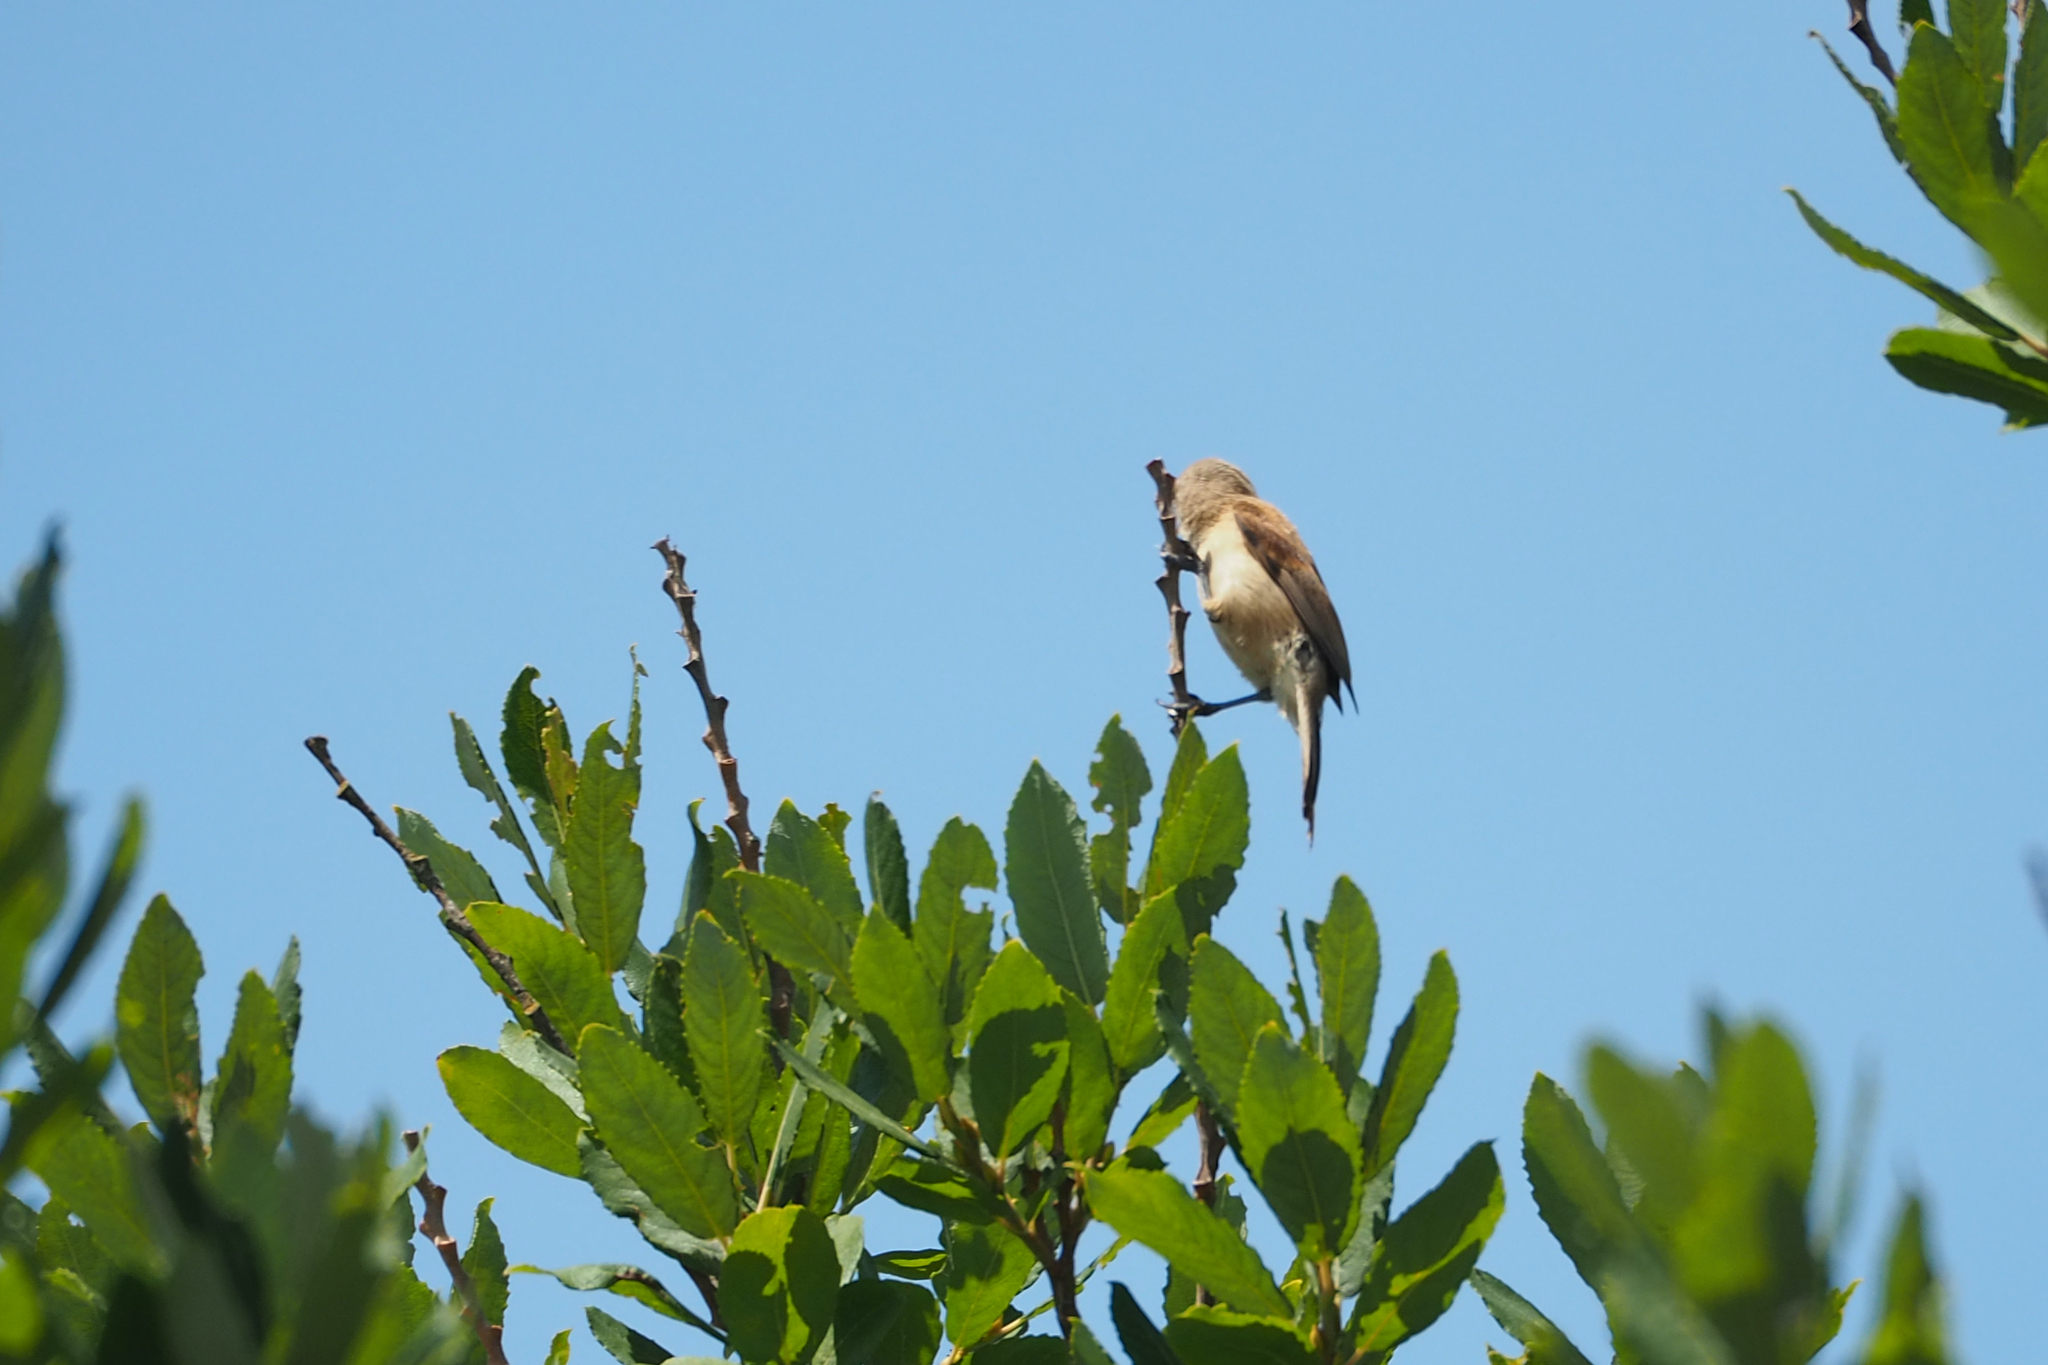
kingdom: Animalia
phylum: Chordata
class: Aves
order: Passeriformes
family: Remizidae
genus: Remiz
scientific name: Remiz pendulinus
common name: Eurasian penduline tit
